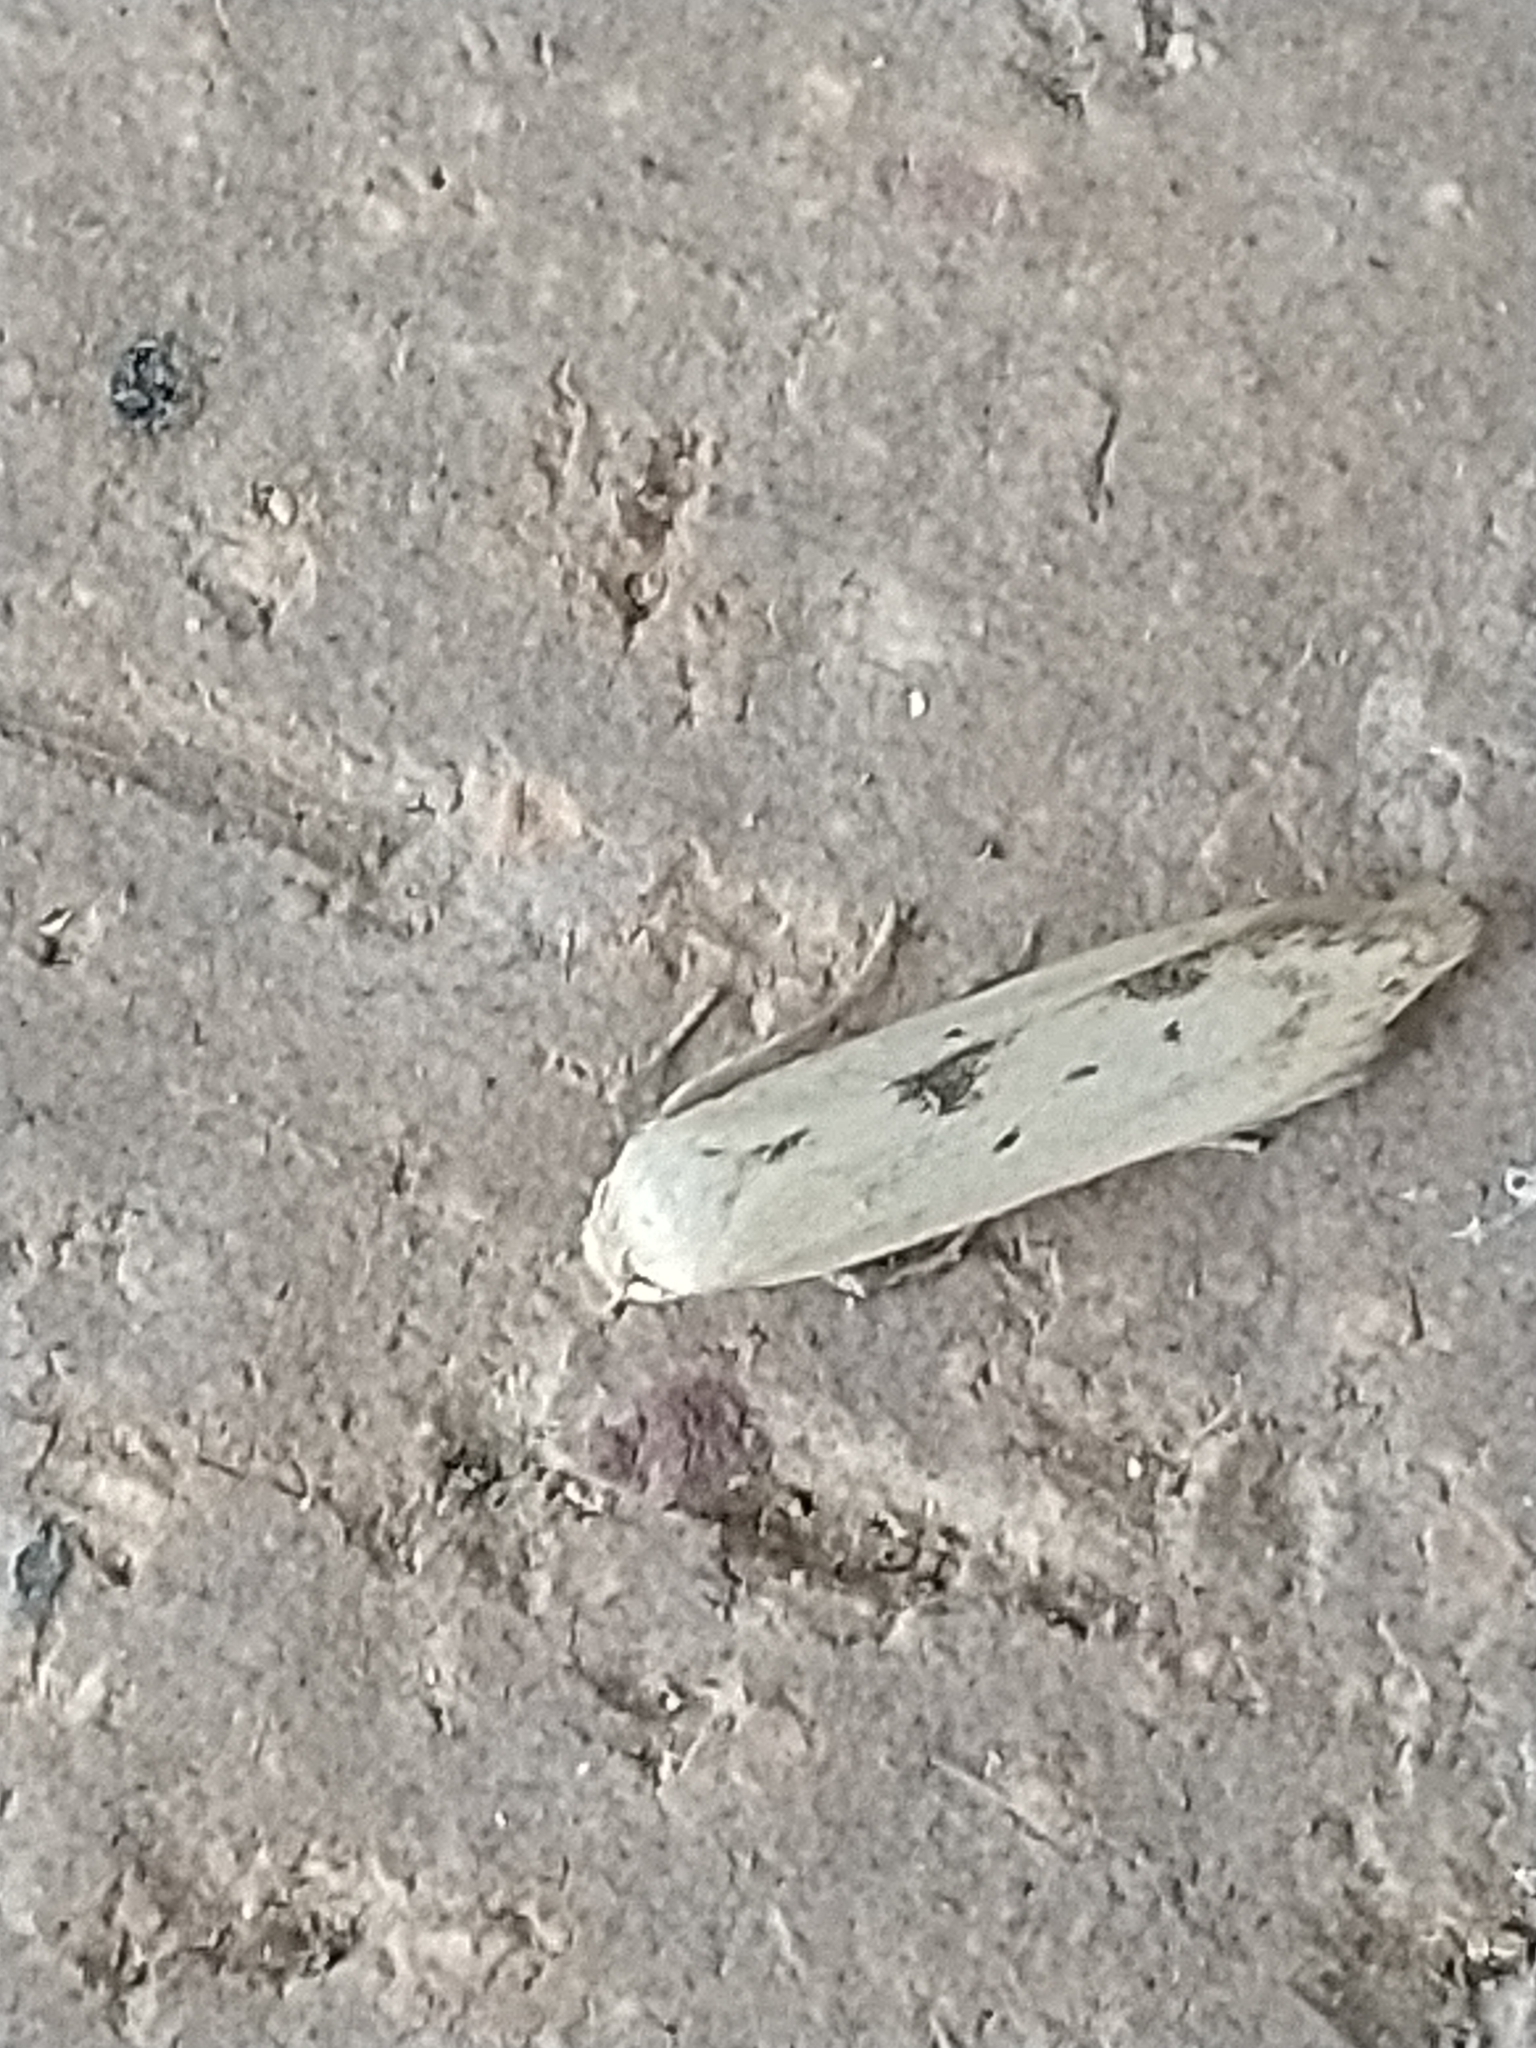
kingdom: Animalia
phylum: Arthropoda
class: Insecta
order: Lepidoptera
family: Blastobasidae
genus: Blastobasis
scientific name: Blastobasis lacticolella
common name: London dowd
